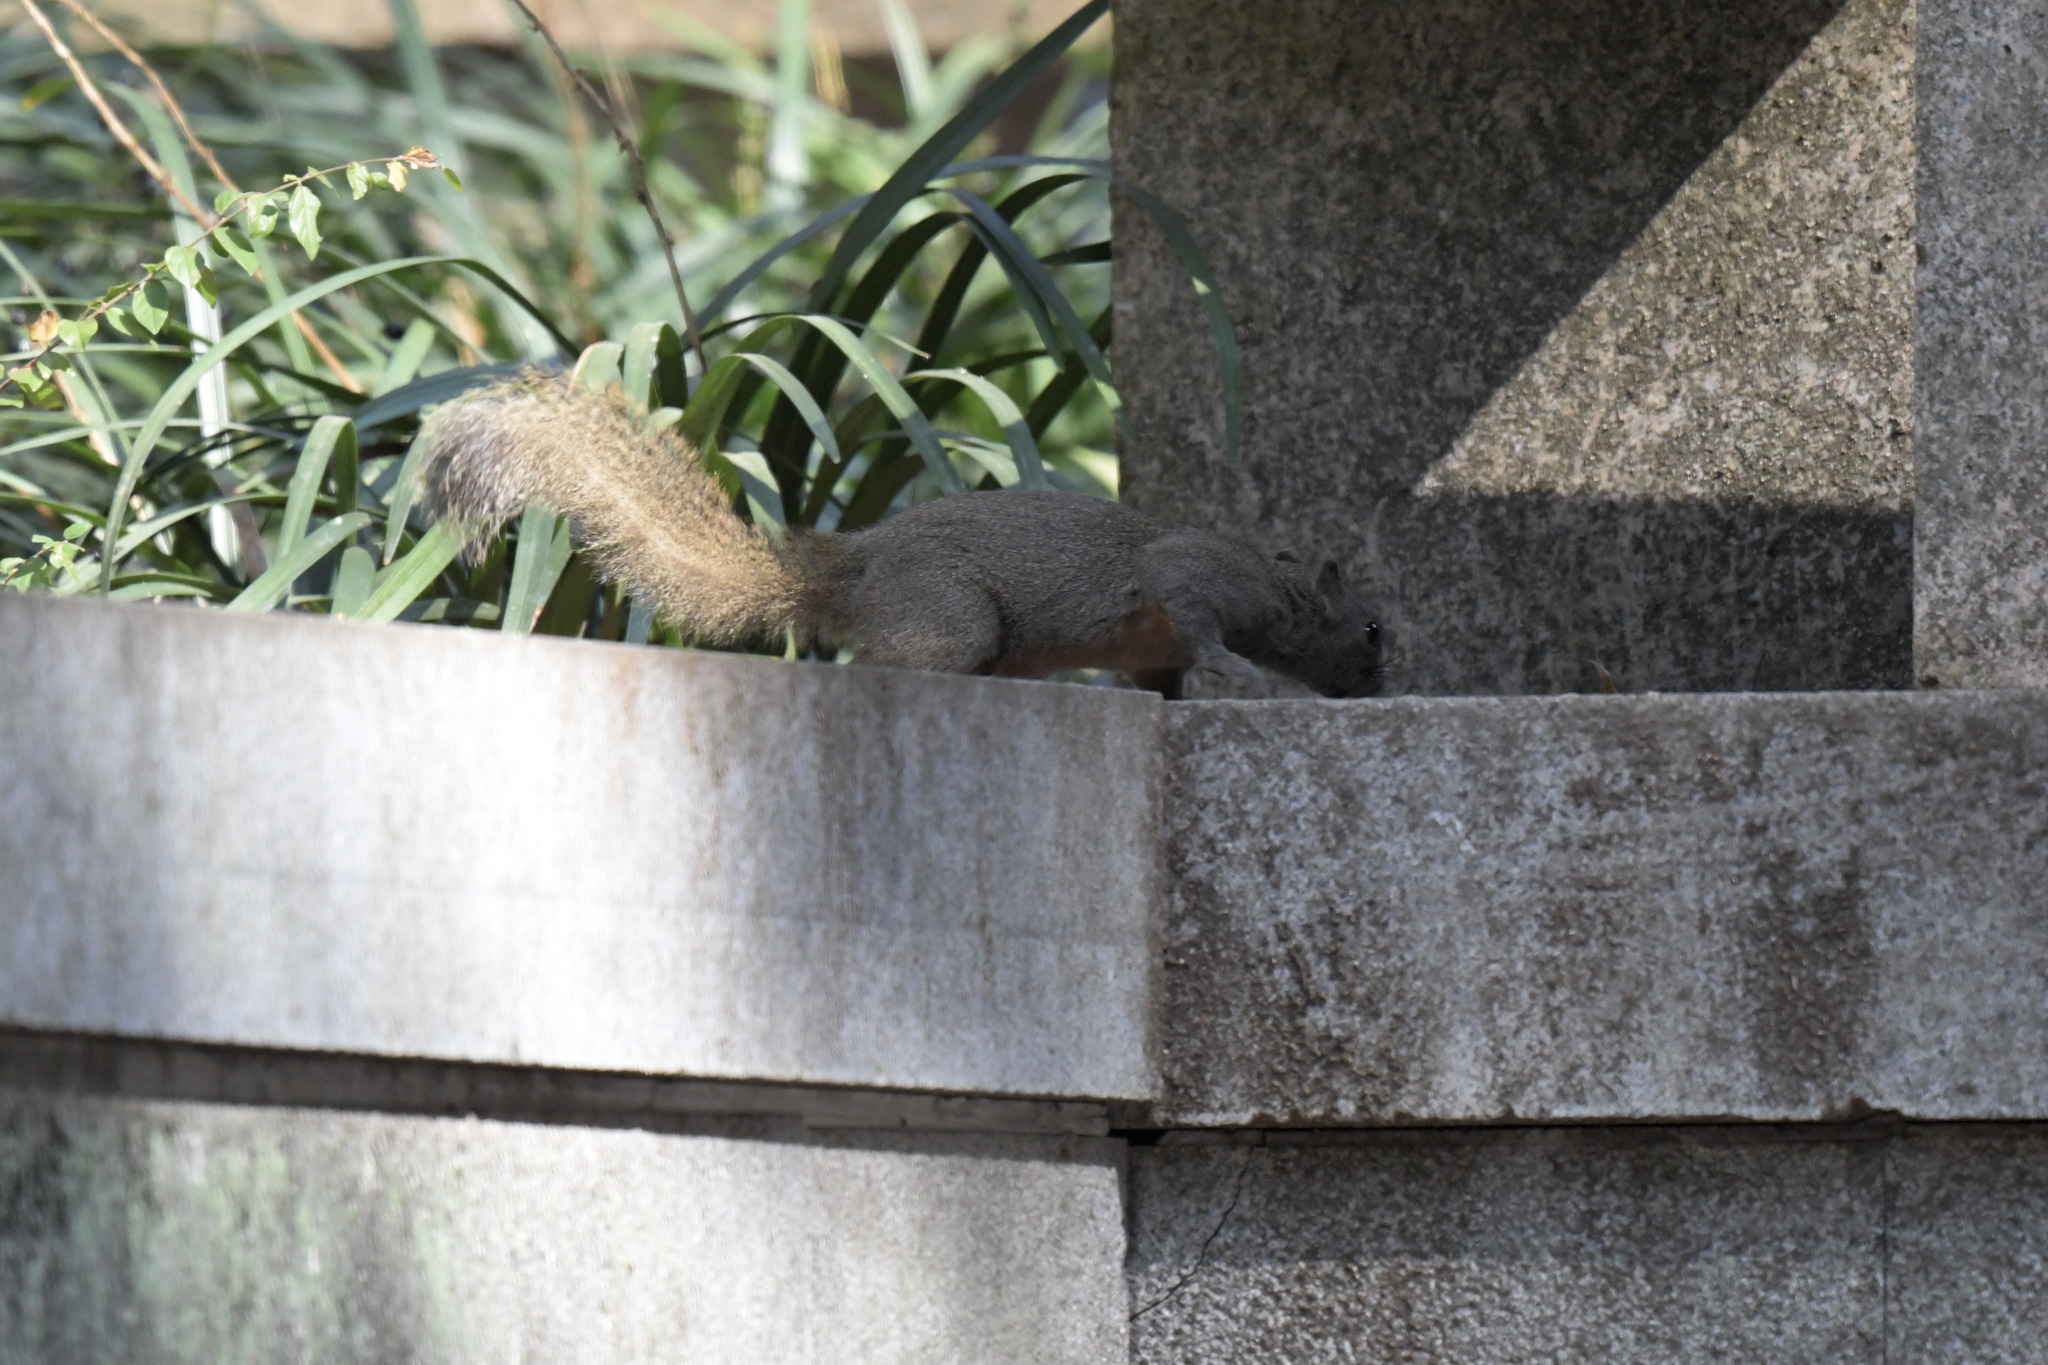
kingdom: Animalia
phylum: Chordata
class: Mammalia
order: Rodentia
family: Sciuridae
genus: Callosciurus
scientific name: Callosciurus erythraeus
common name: Pallas's squirrel
